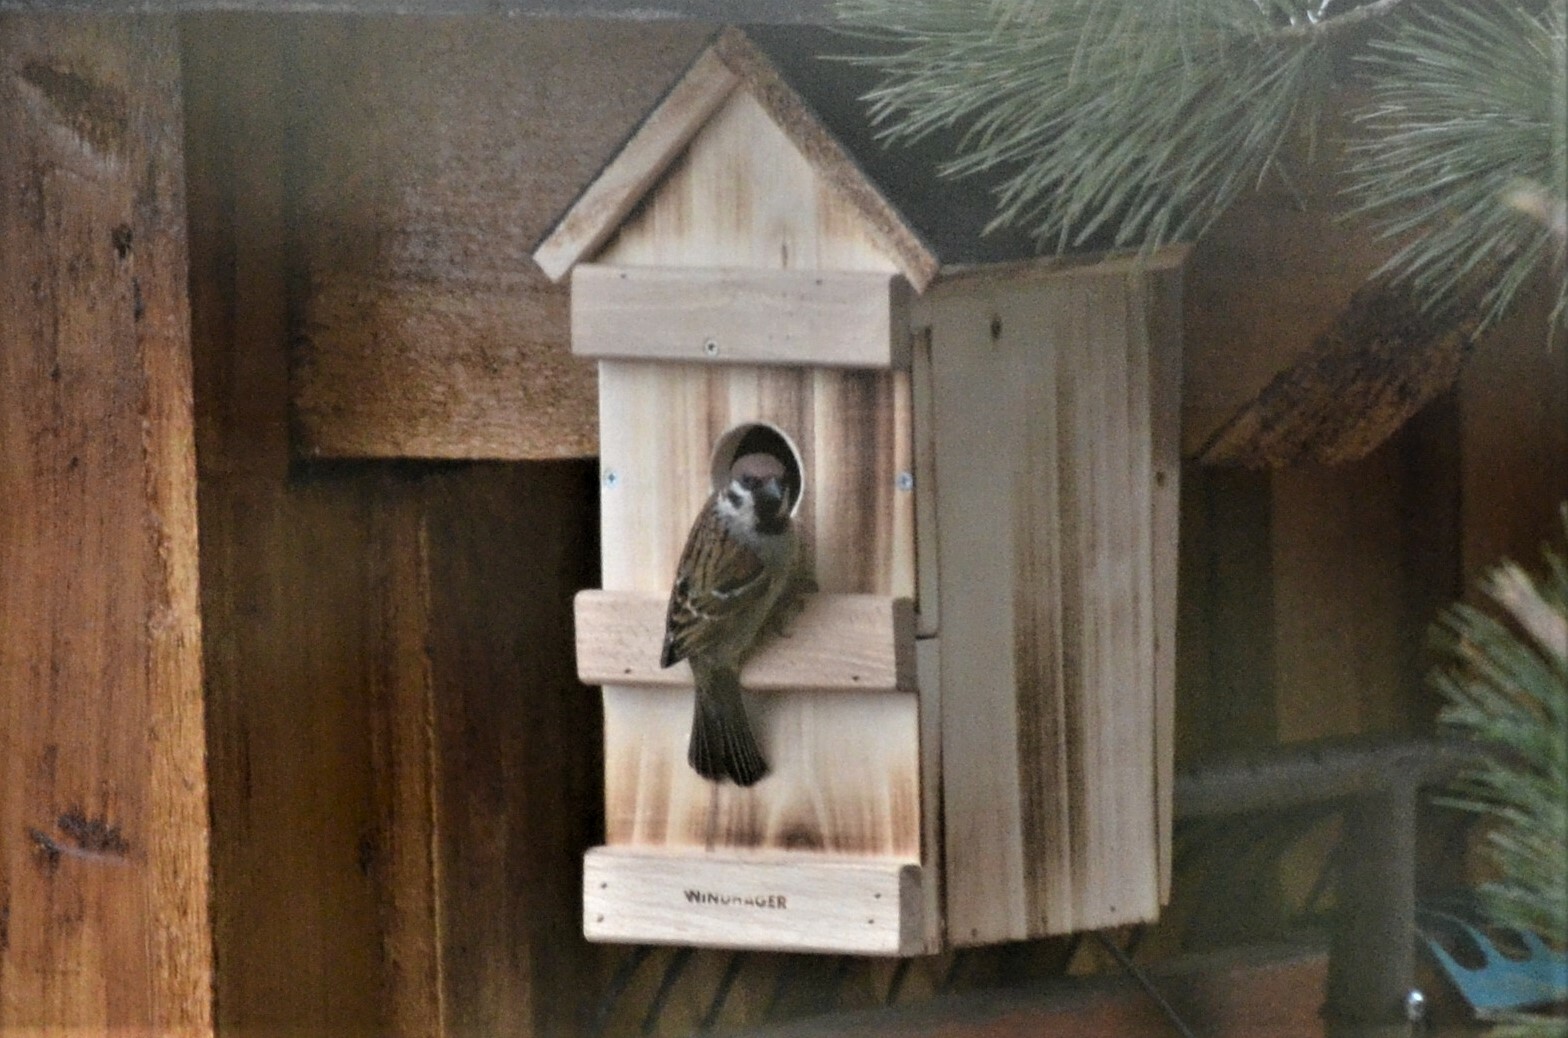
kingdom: Animalia
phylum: Chordata
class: Aves
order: Passeriformes
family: Passeridae
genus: Passer
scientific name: Passer montanus
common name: Eurasian tree sparrow
